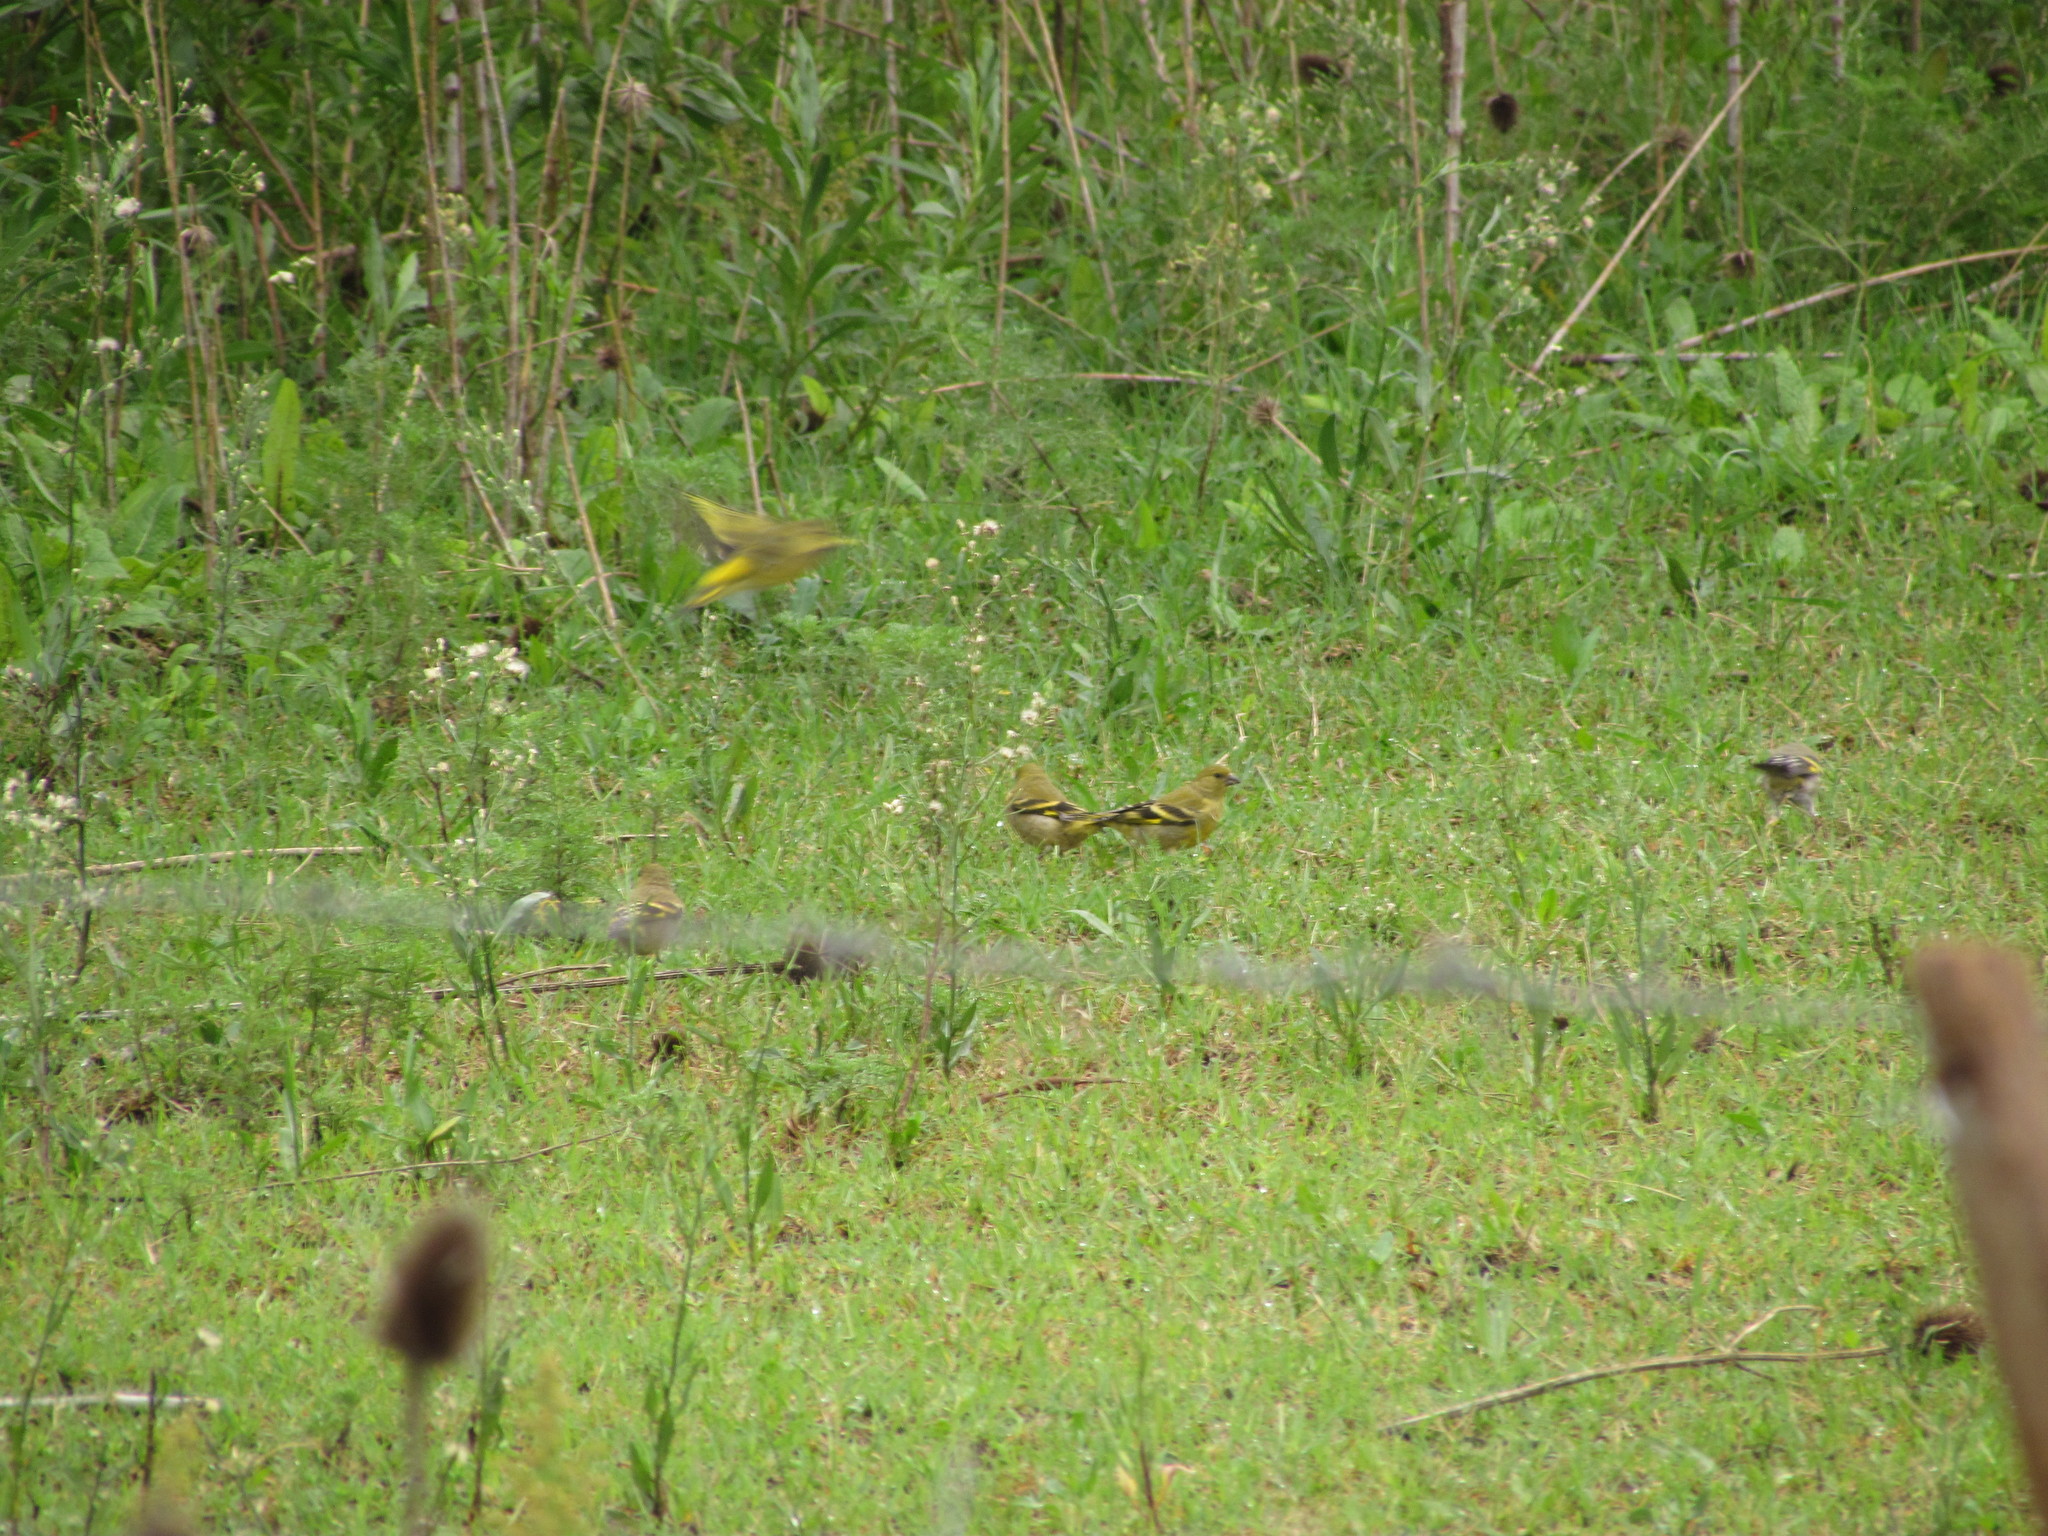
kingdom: Animalia
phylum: Chordata
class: Aves
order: Passeriformes
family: Fringillidae
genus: Spinus
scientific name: Spinus magellanicus
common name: Hooded siskin
